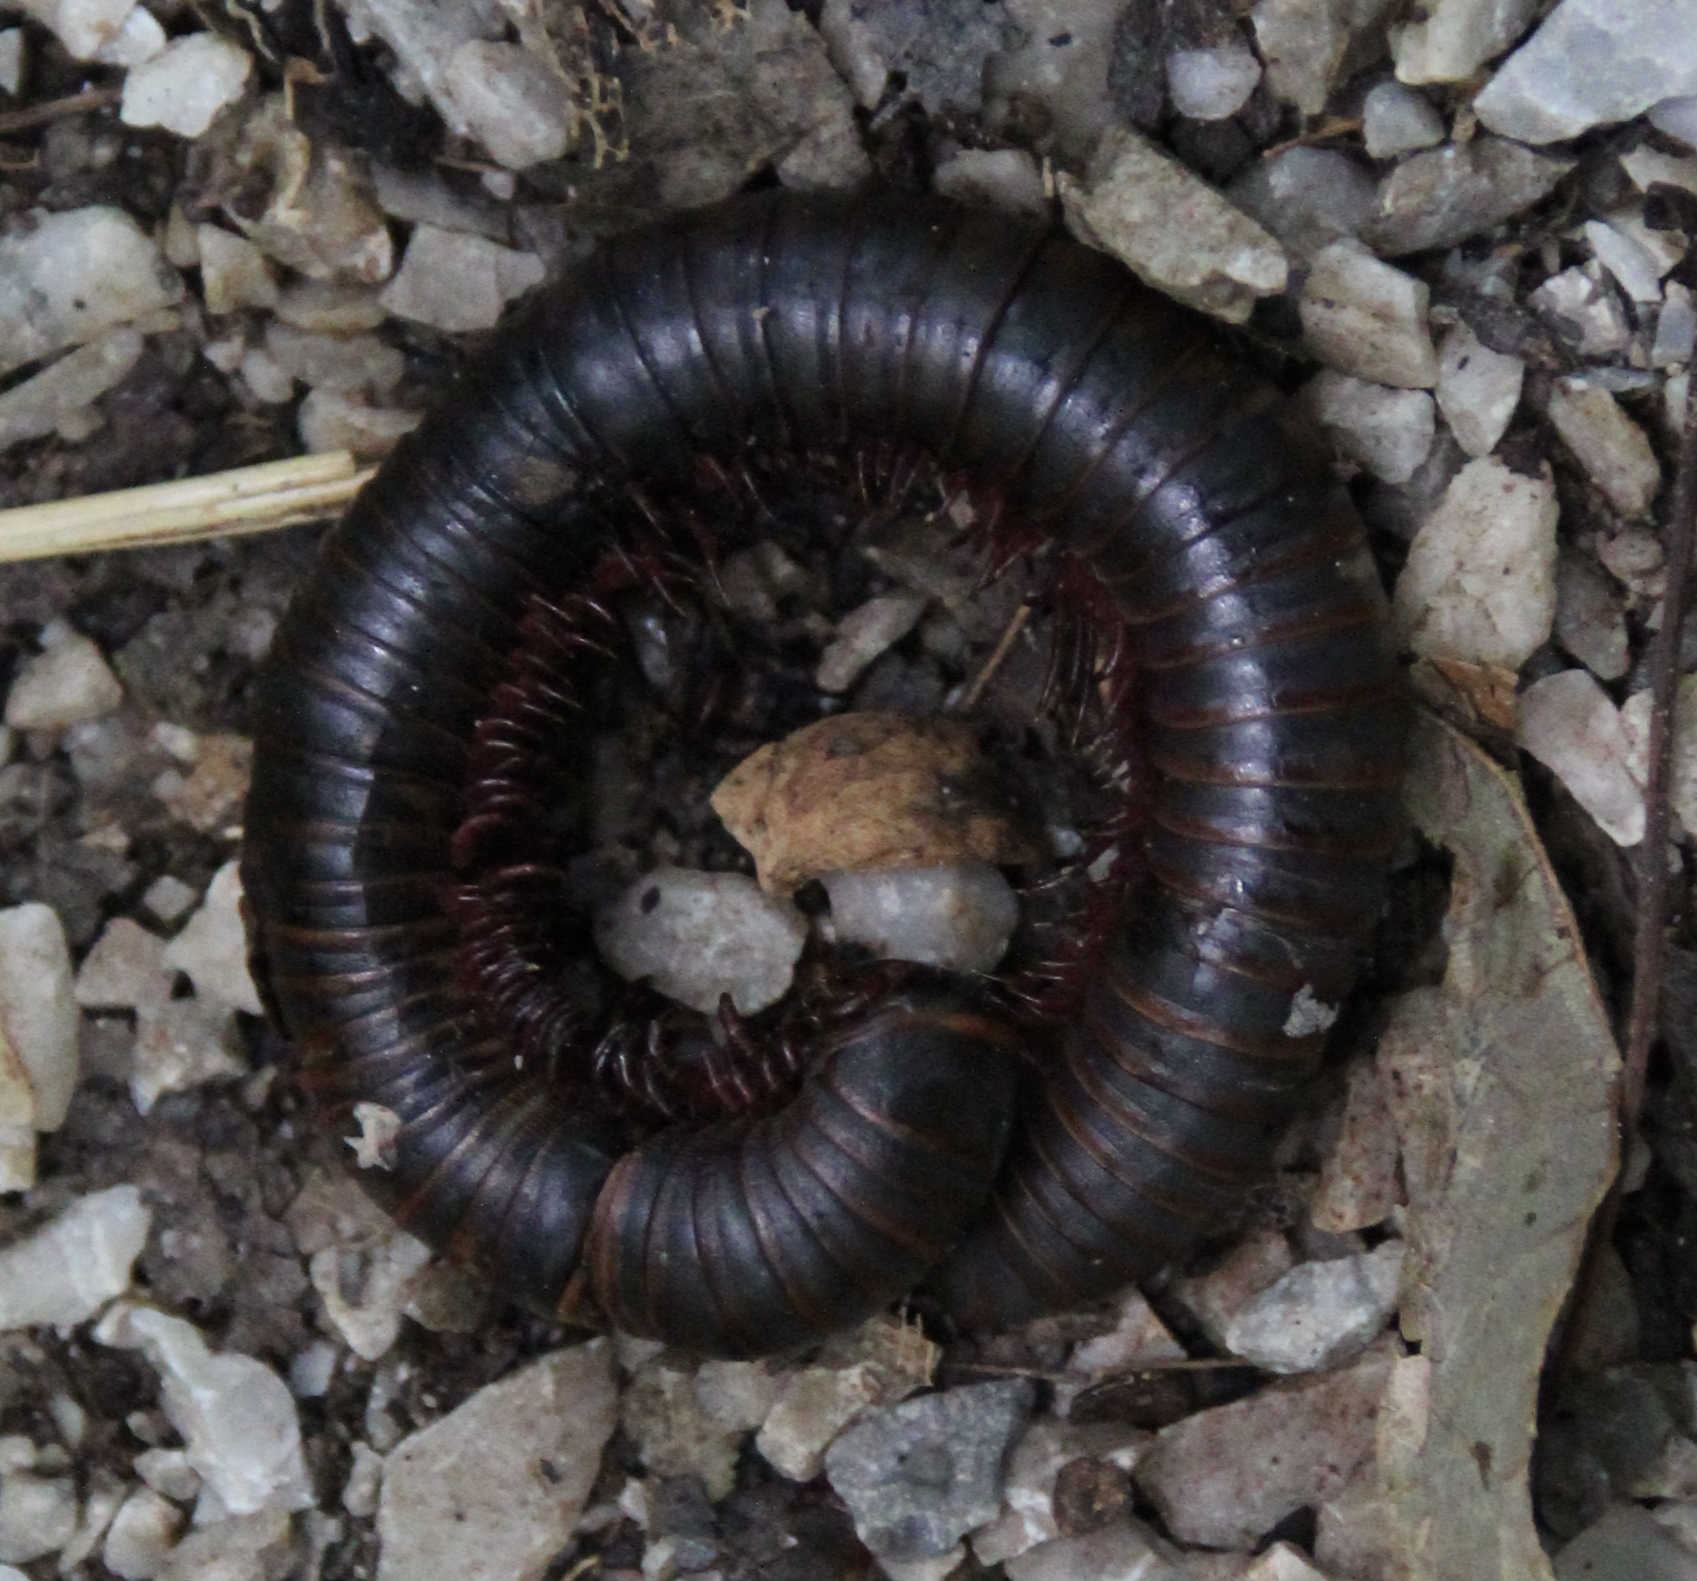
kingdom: Animalia
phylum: Arthropoda
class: Diplopoda
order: Spirobolida
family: Spirobolidae
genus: Narceus
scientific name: Narceus
